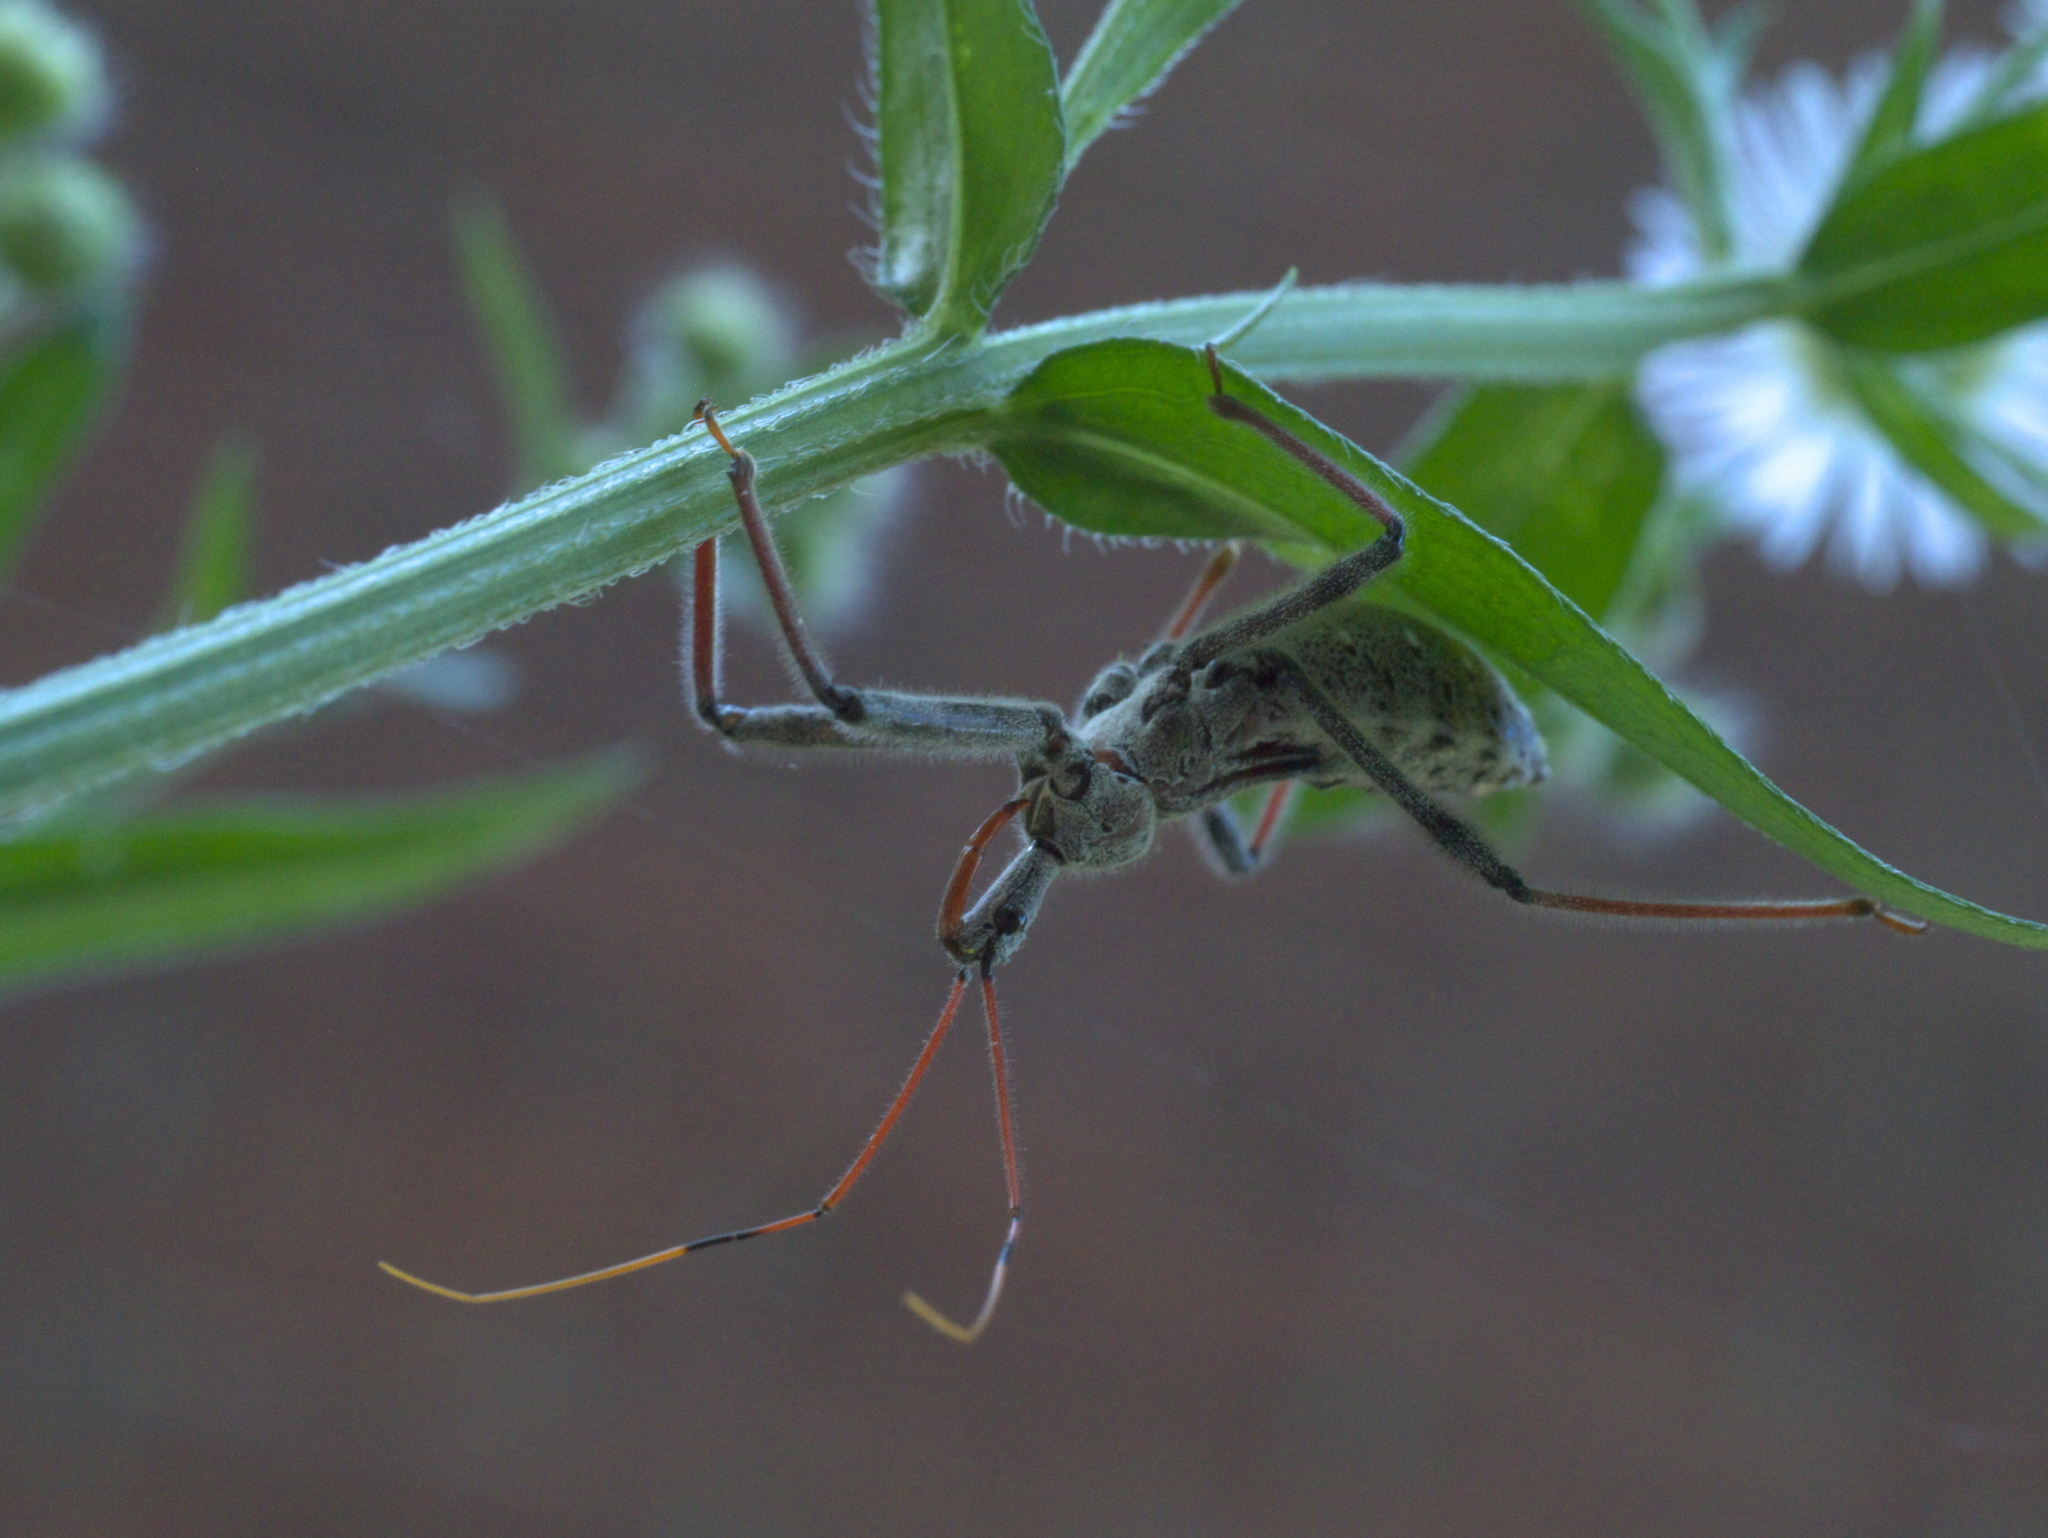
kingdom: Animalia
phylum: Arthropoda
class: Insecta
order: Hemiptera
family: Reduviidae
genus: Arilus
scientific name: Arilus cristatus
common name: North american wheel bug
